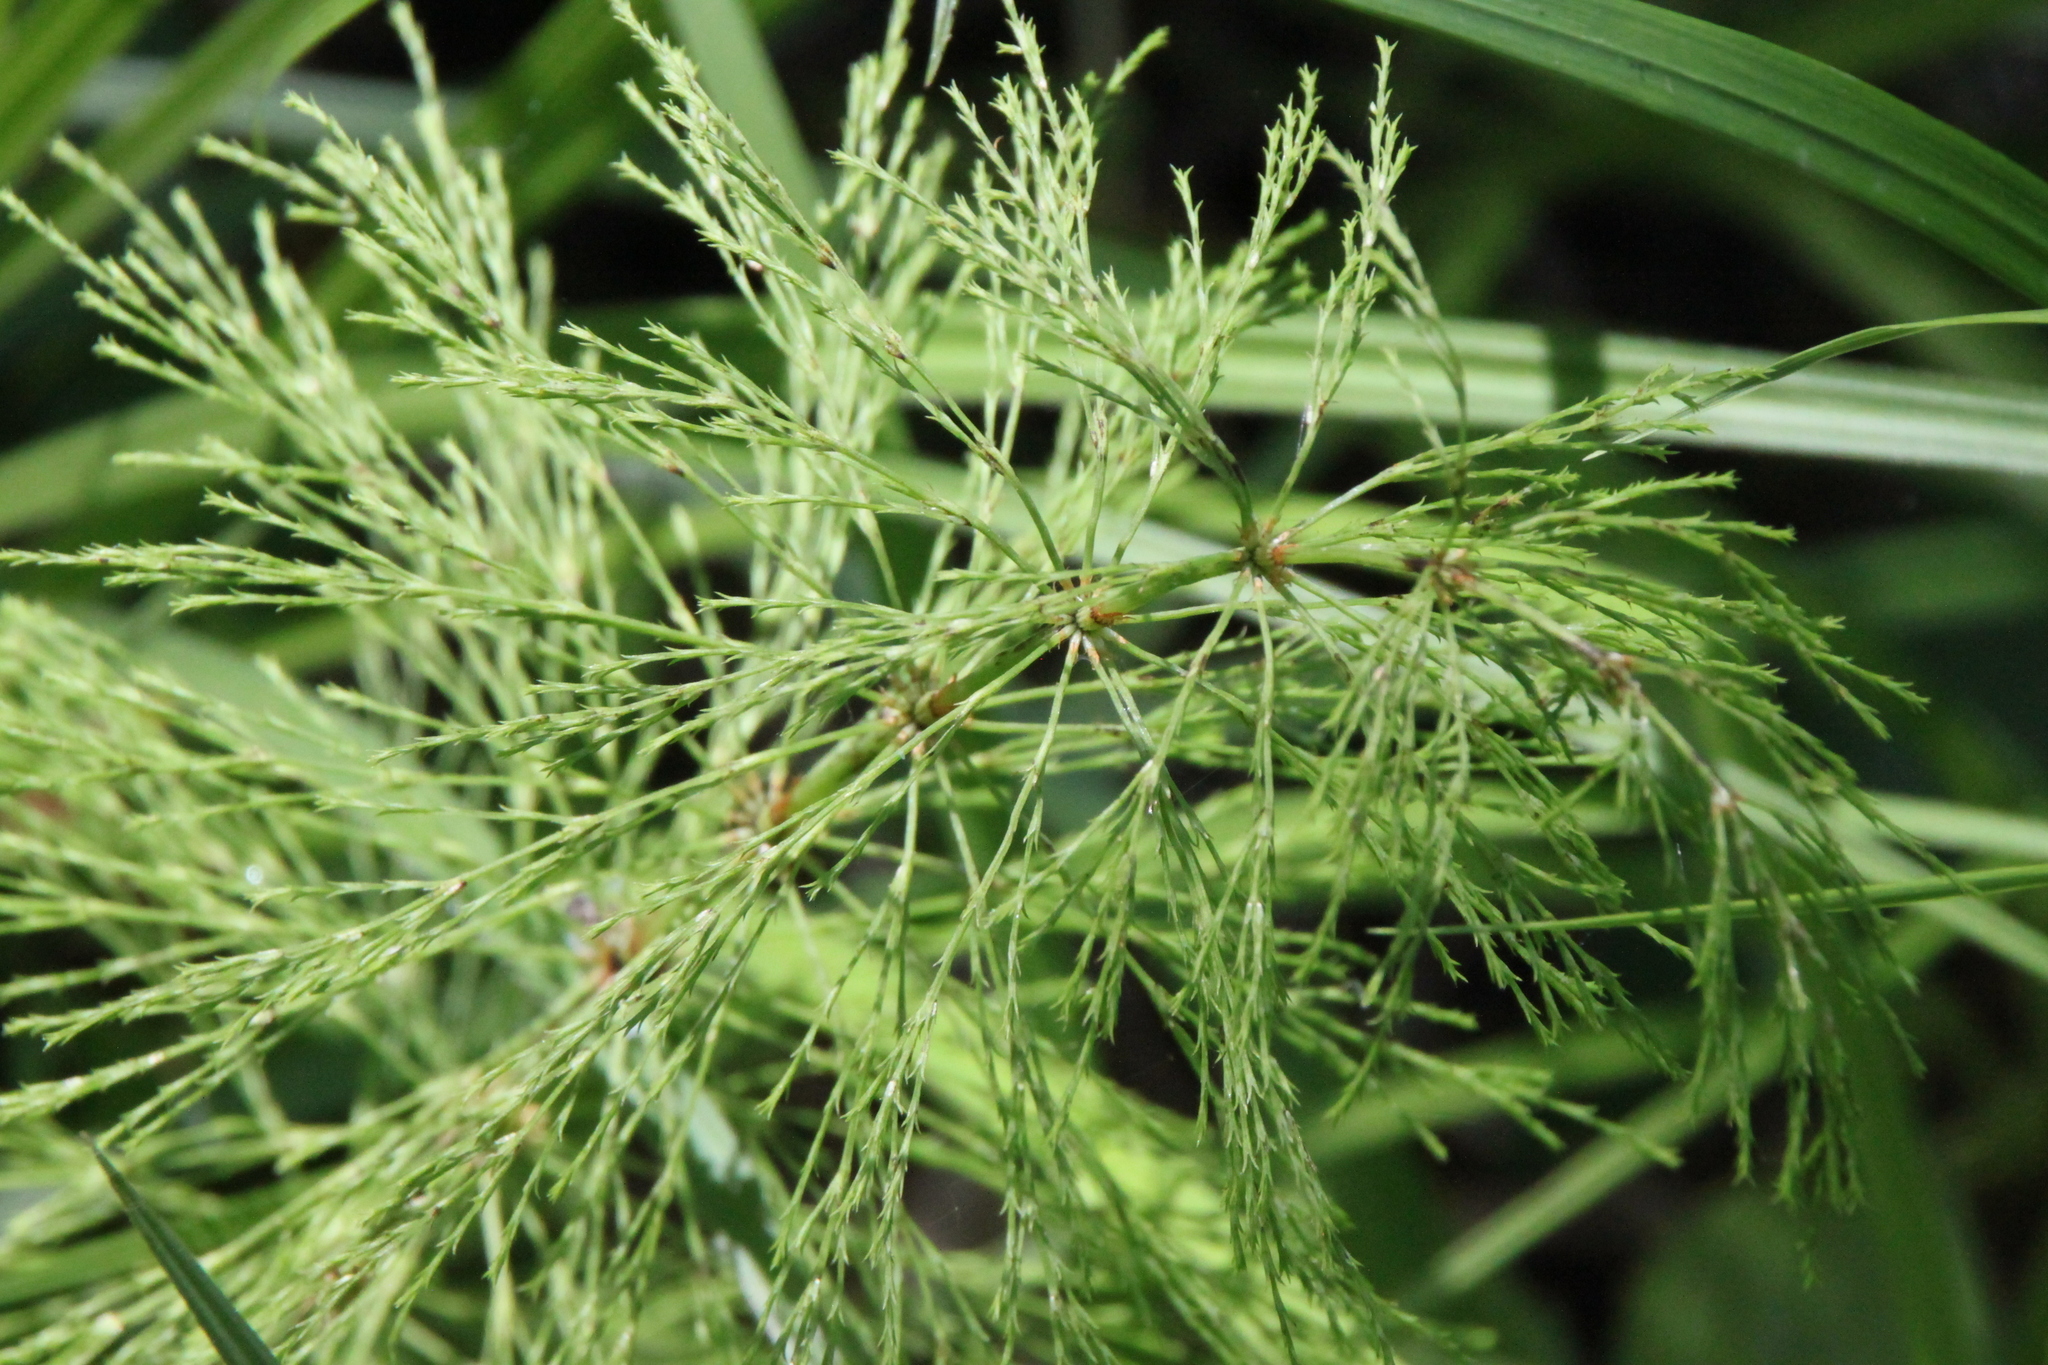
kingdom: Plantae
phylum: Tracheophyta
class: Polypodiopsida
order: Equisetales
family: Equisetaceae
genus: Equisetum
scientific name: Equisetum sylvaticum
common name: Wood horsetail
